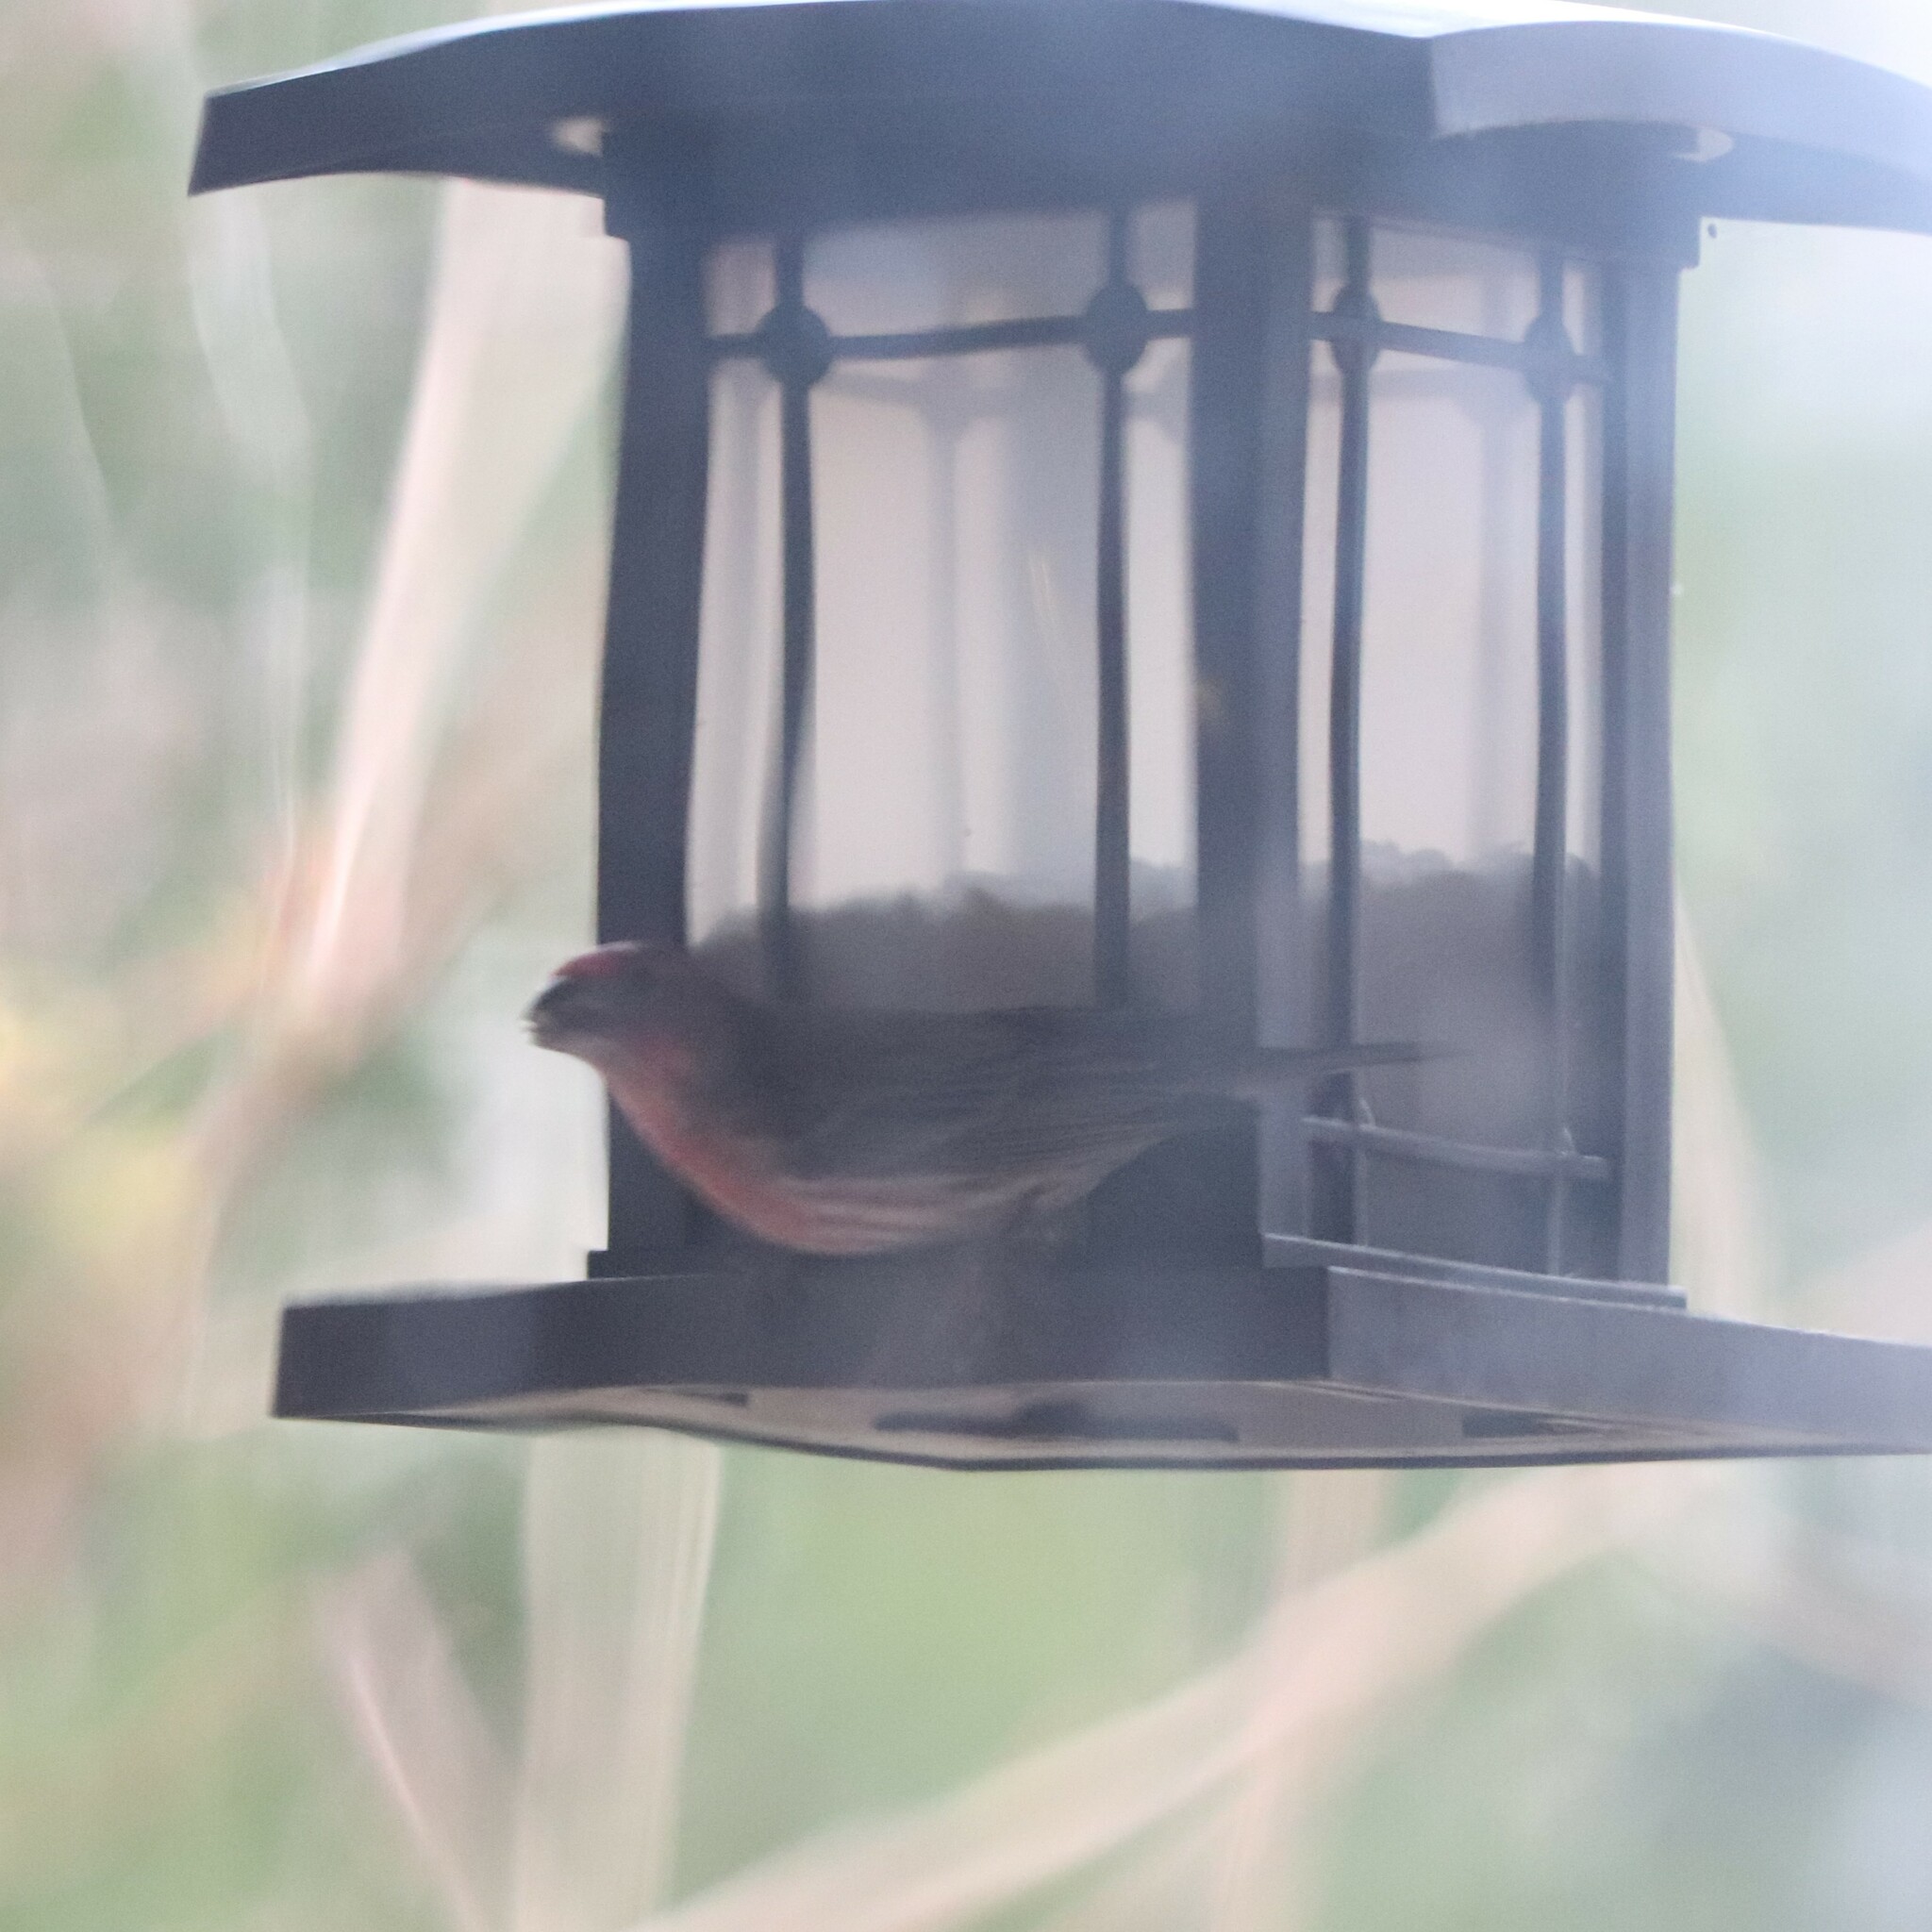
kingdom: Animalia
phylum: Chordata
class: Aves
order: Passeriformes
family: Fringillidae
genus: Haemorhous
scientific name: Haemorhous mexicanus
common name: House finch
